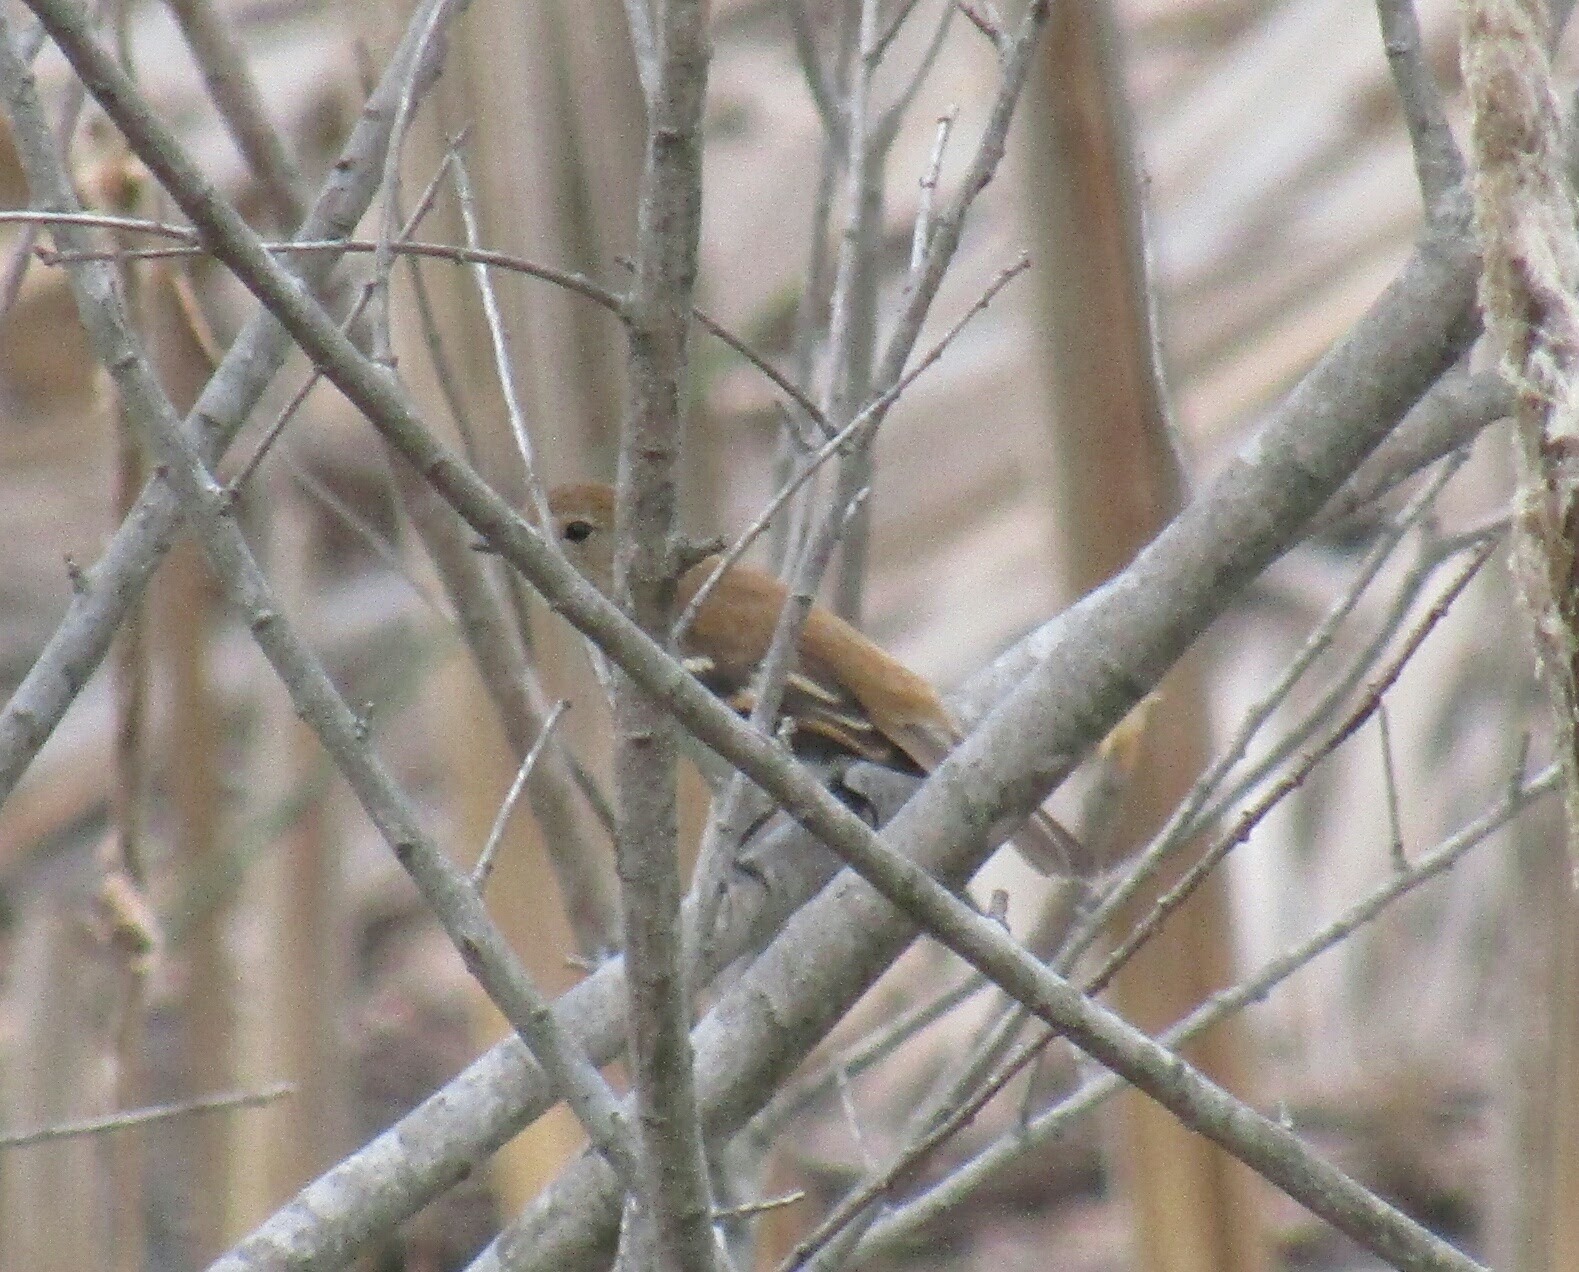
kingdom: Animalia
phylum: Chordata
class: Aves
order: Passeriformes
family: Tyrannidae
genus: Myiophobus
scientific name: Myiophobus fasciatus
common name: Bran-colored flycatcher
